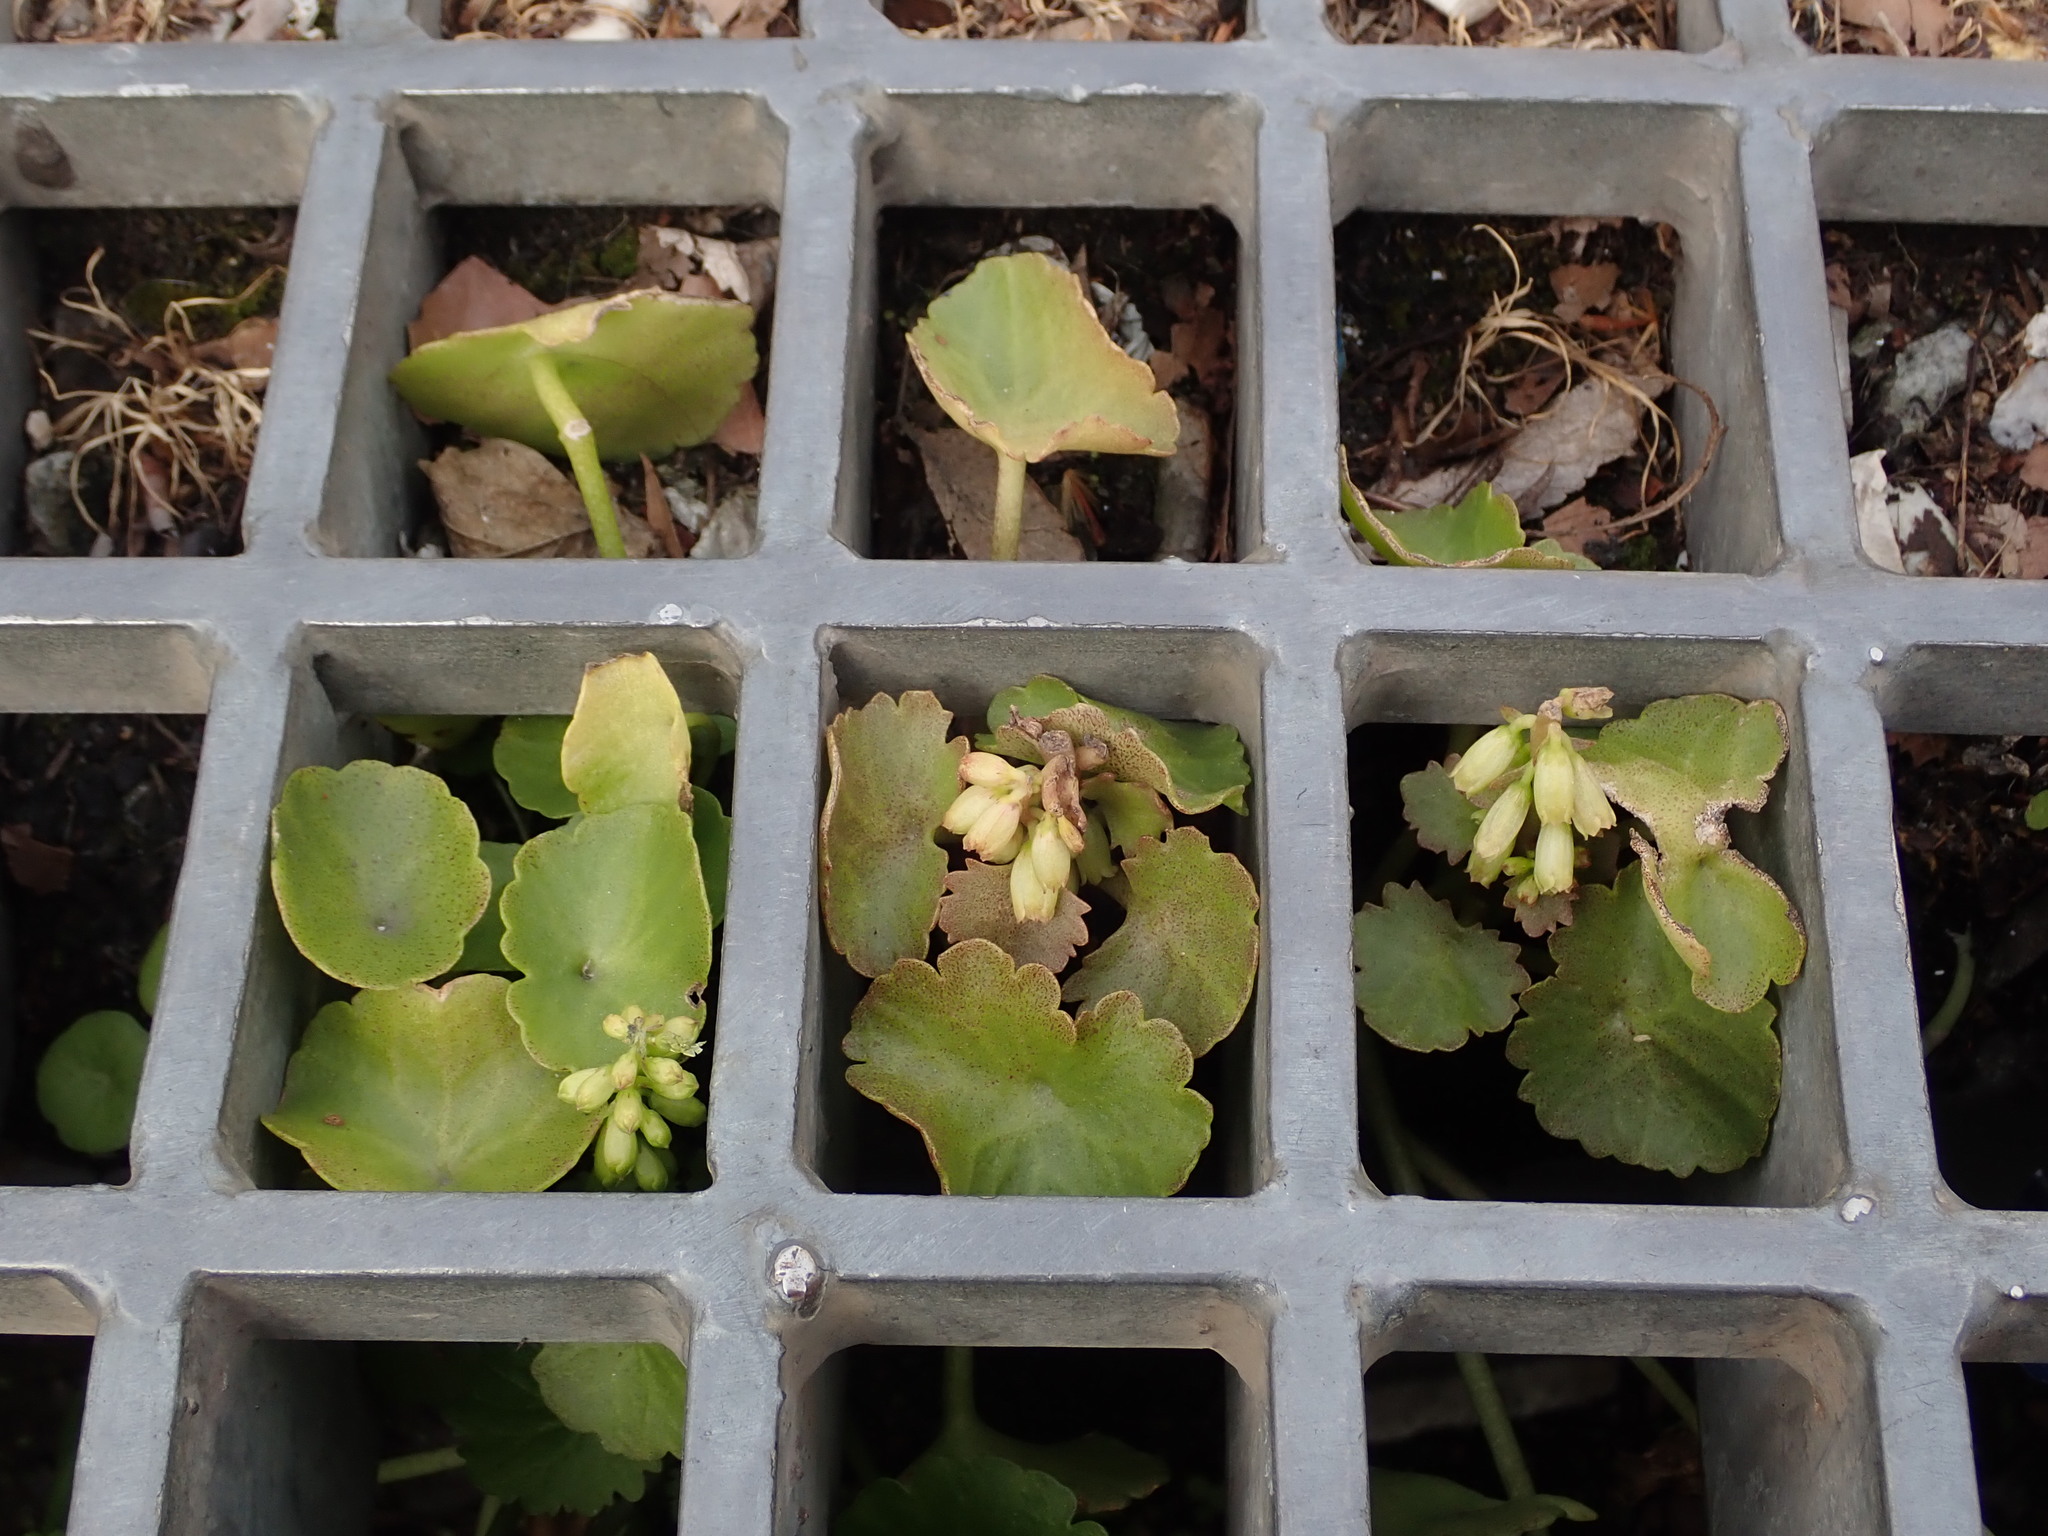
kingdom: Plantae
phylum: Tracheophyta
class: Magnoliopsida
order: Saxifragales
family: Crassulaceae
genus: Umbilicus
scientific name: Umbilicus rupestris
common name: Navelwort
